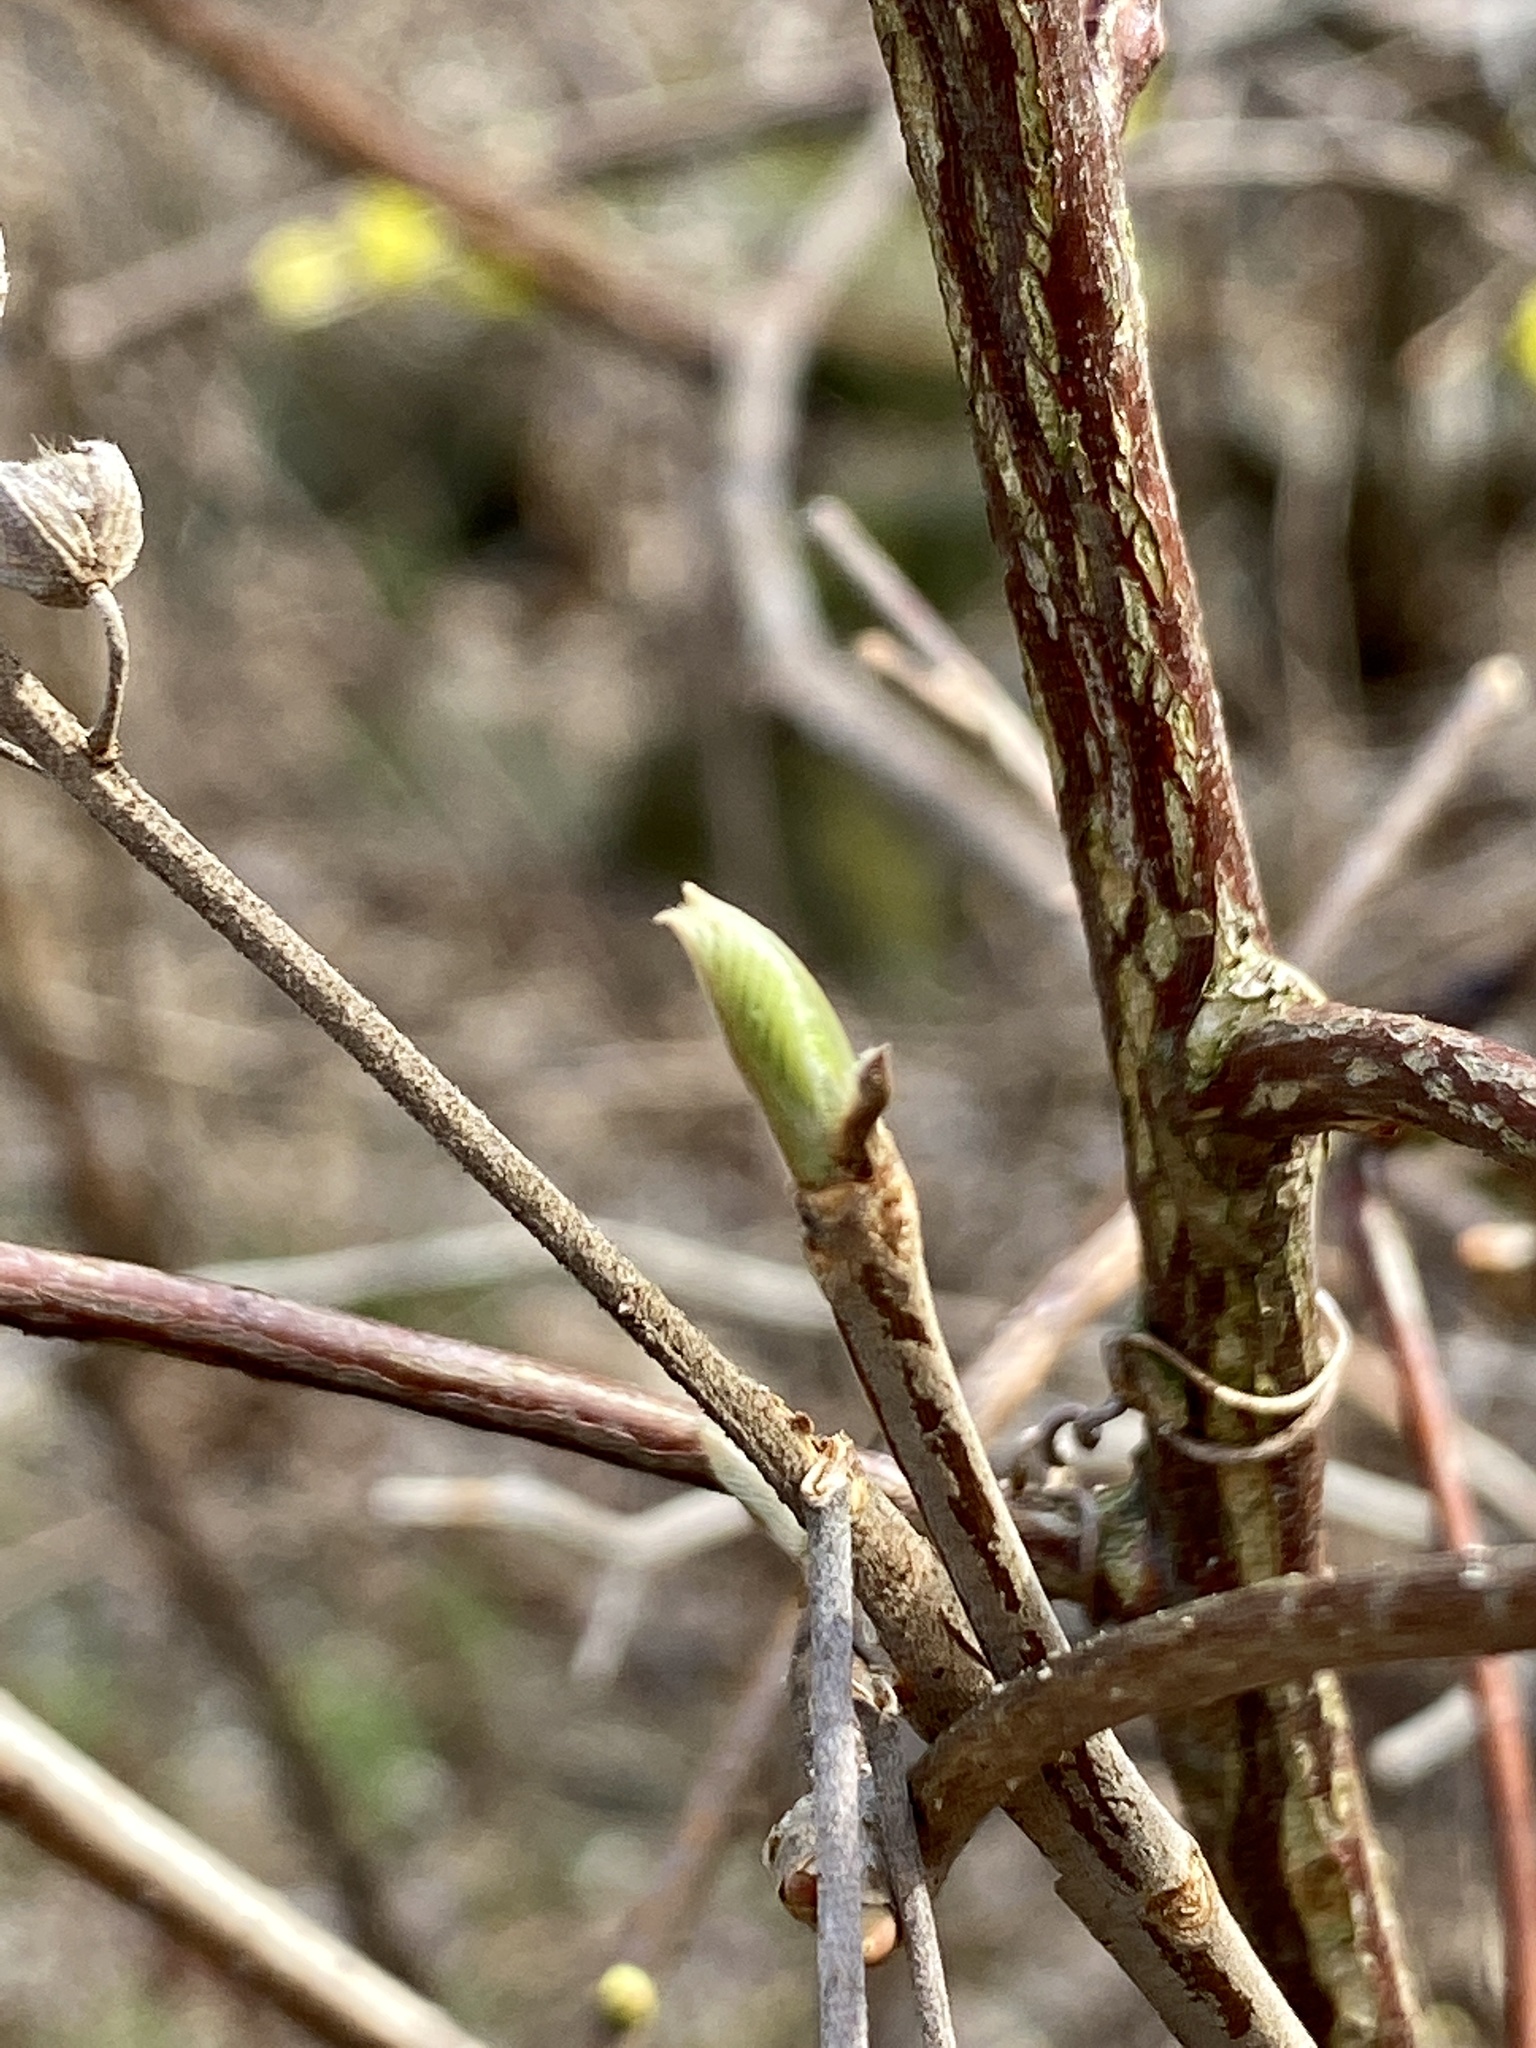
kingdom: Plantae
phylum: Tracheophyta
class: Magnoliopsida
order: Ericales
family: Clethraceae
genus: Clethra
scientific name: Clethra alnifolia
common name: Sweet pepperbush
